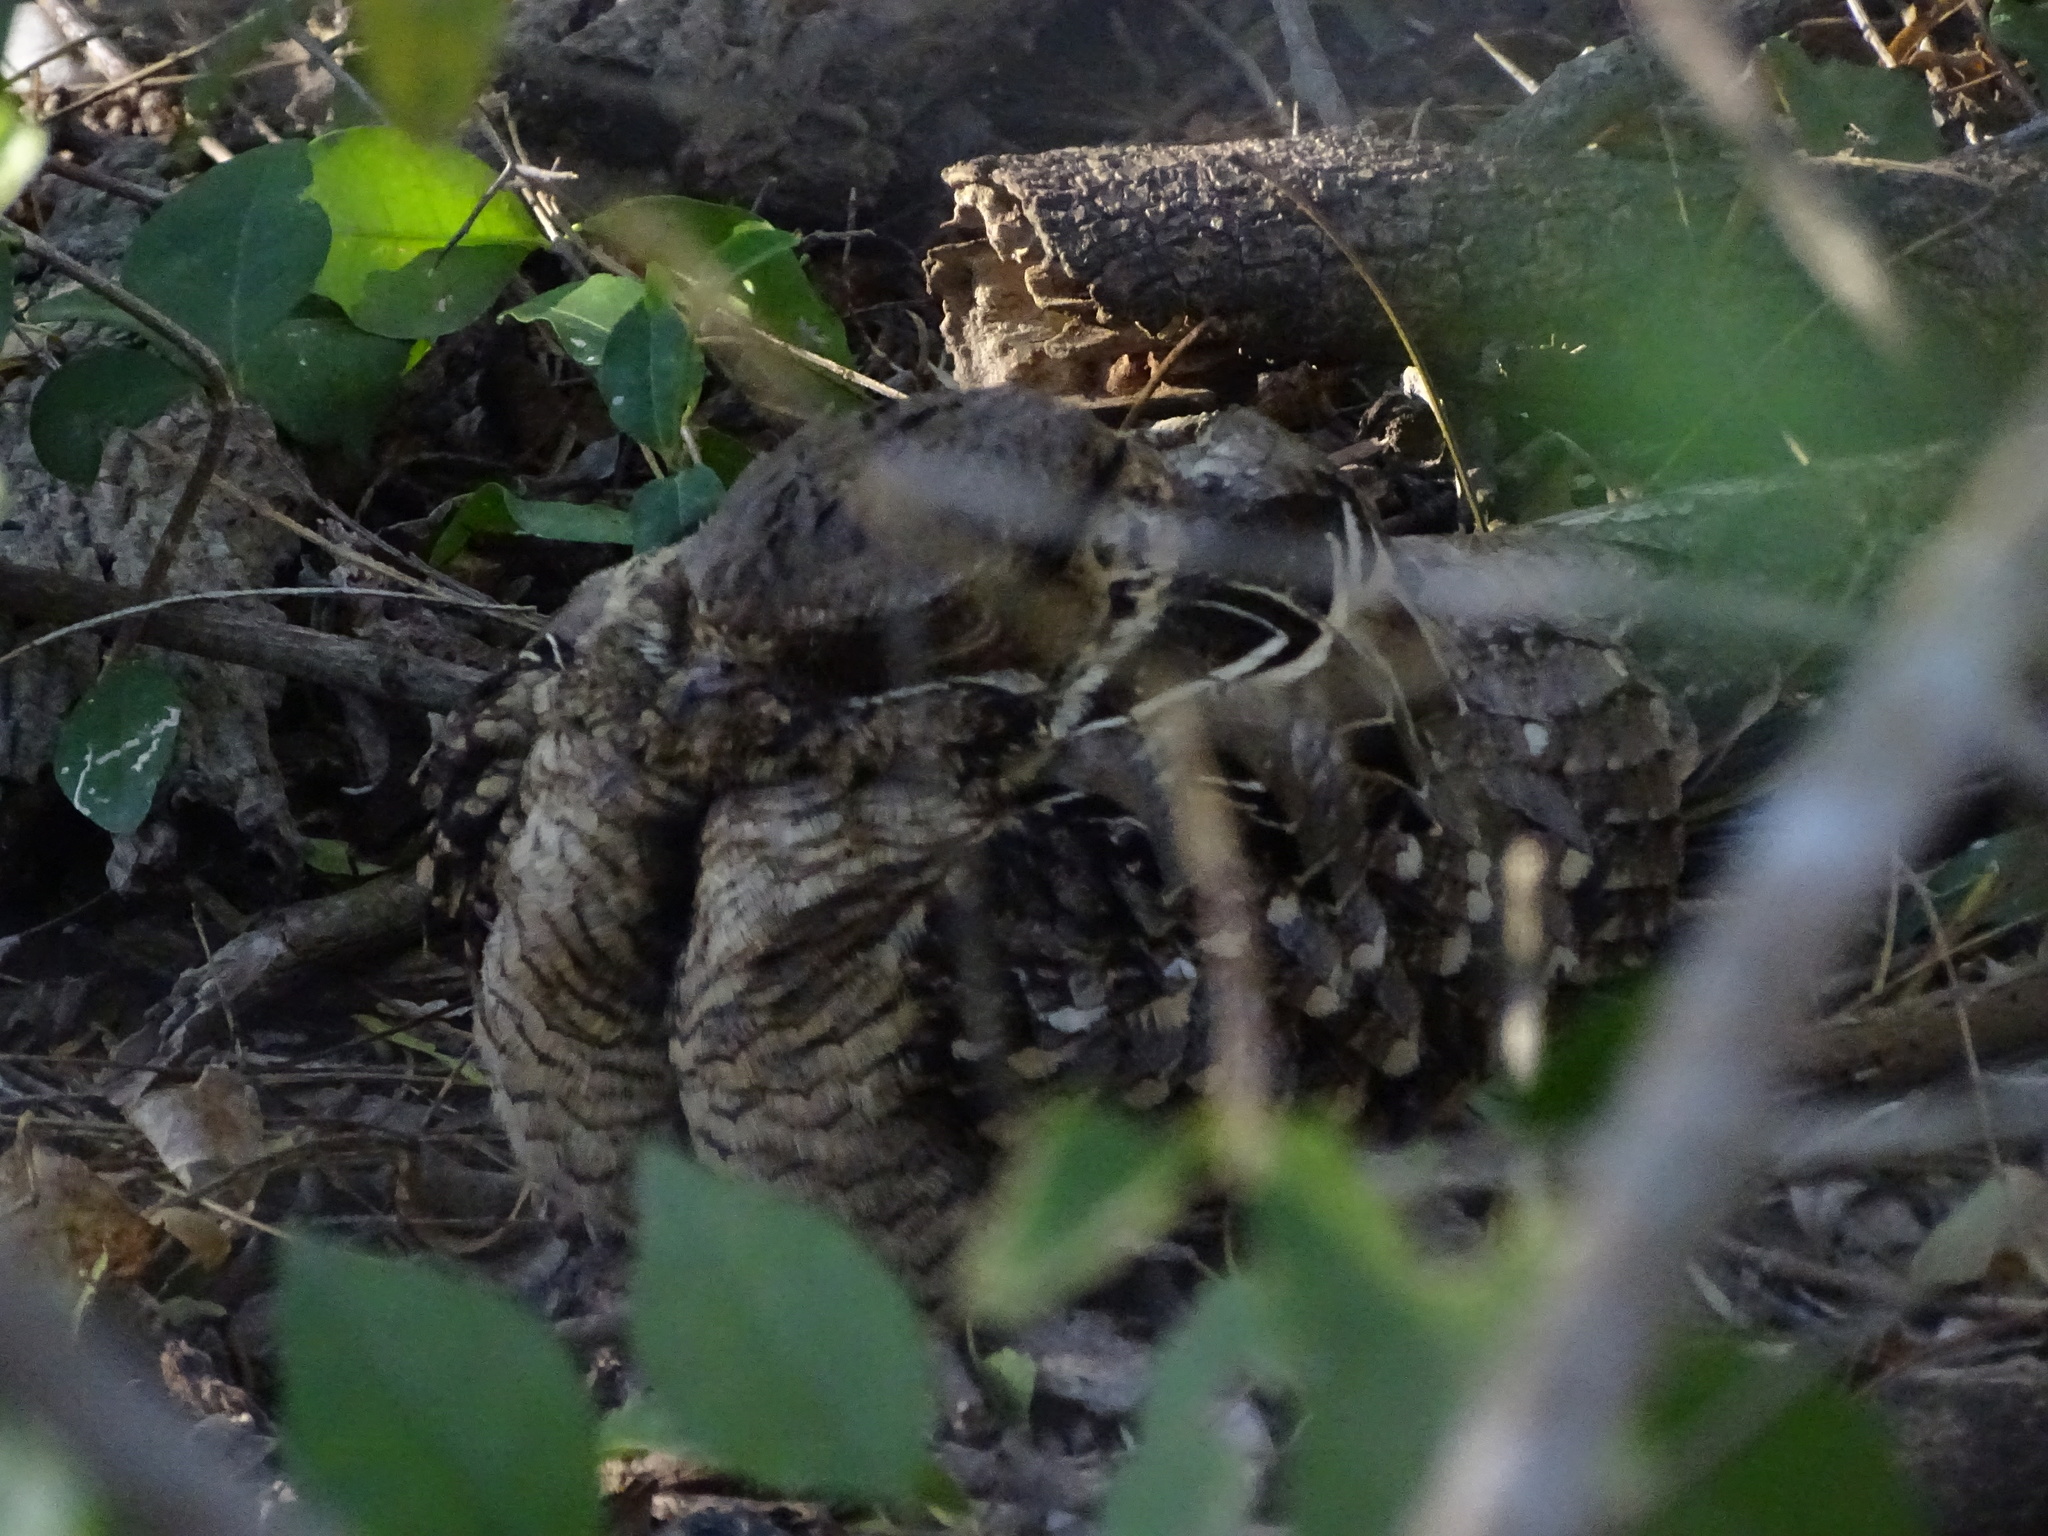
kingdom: Animalia
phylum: Chordata
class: Aves
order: Caprimulgiformes
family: Caprimulgidae
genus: Nyctidromus
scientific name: Nyctidromus albicollis
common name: Pauraque
